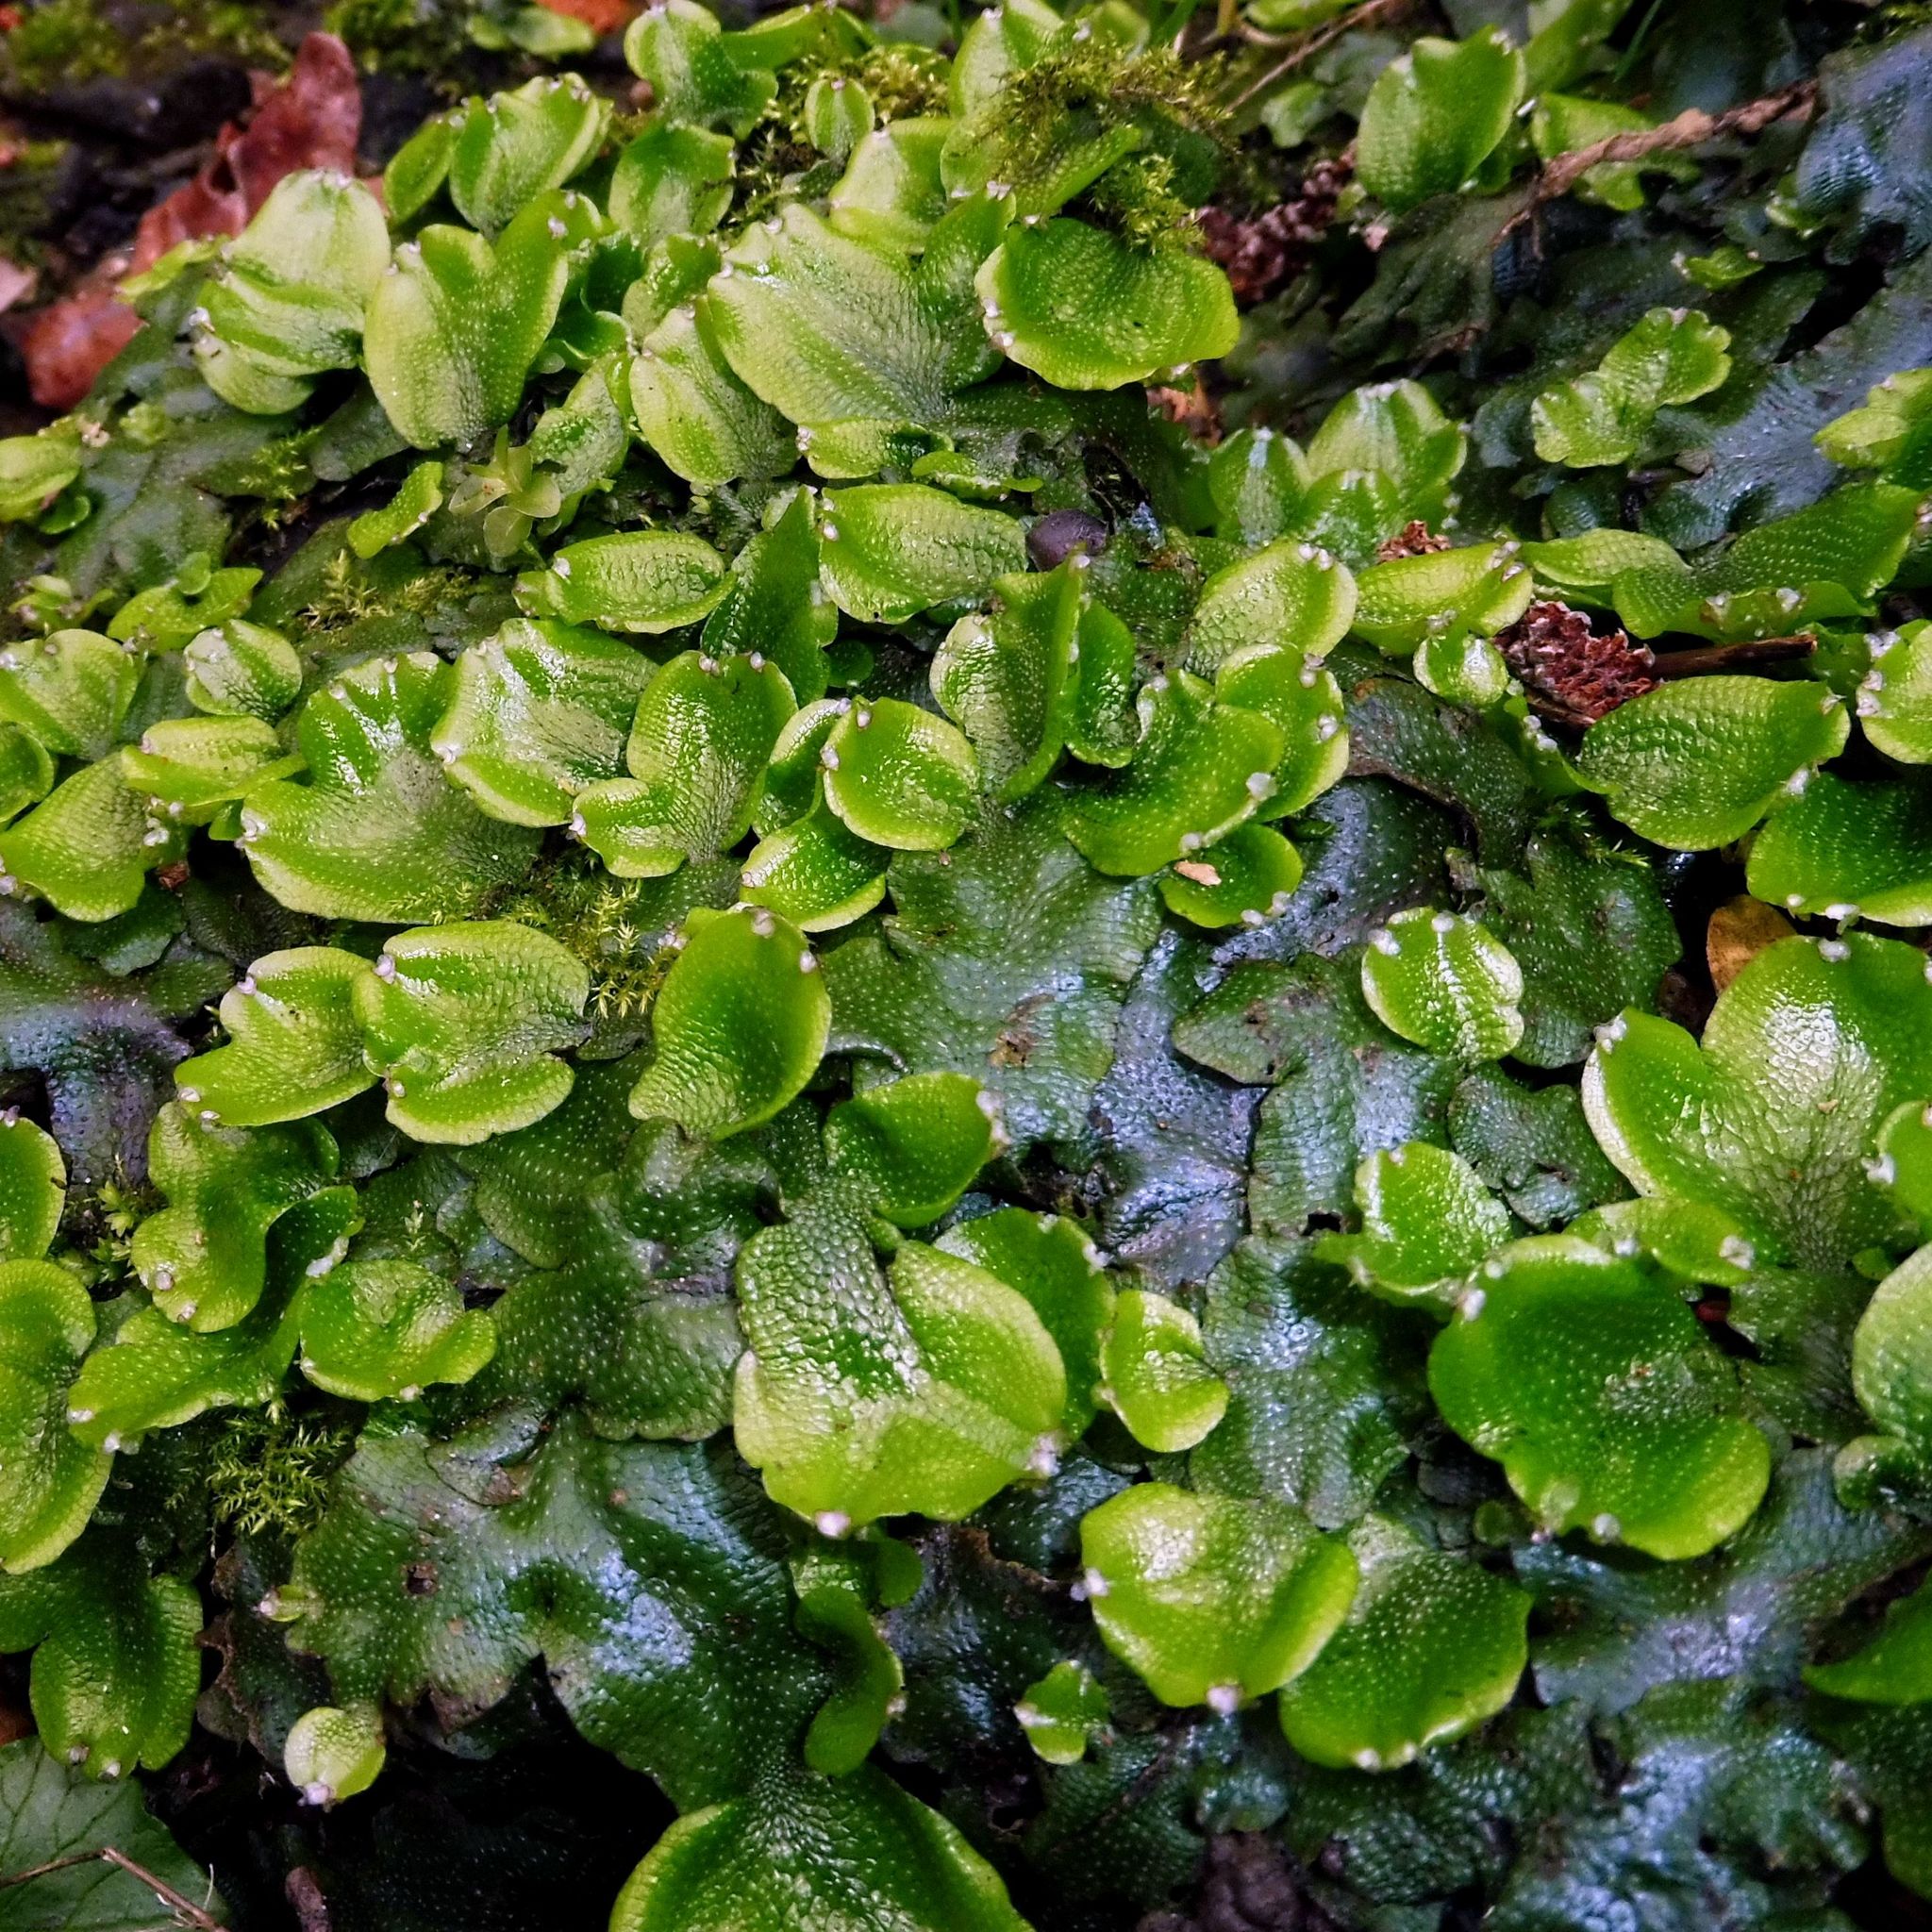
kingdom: Plantae
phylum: Marchantiophyta
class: Marchantiopsida
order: Marchantiales
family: Conocephalaceae
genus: Conocephalum
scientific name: Conocephalum conicum
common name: Great scented liverwort
